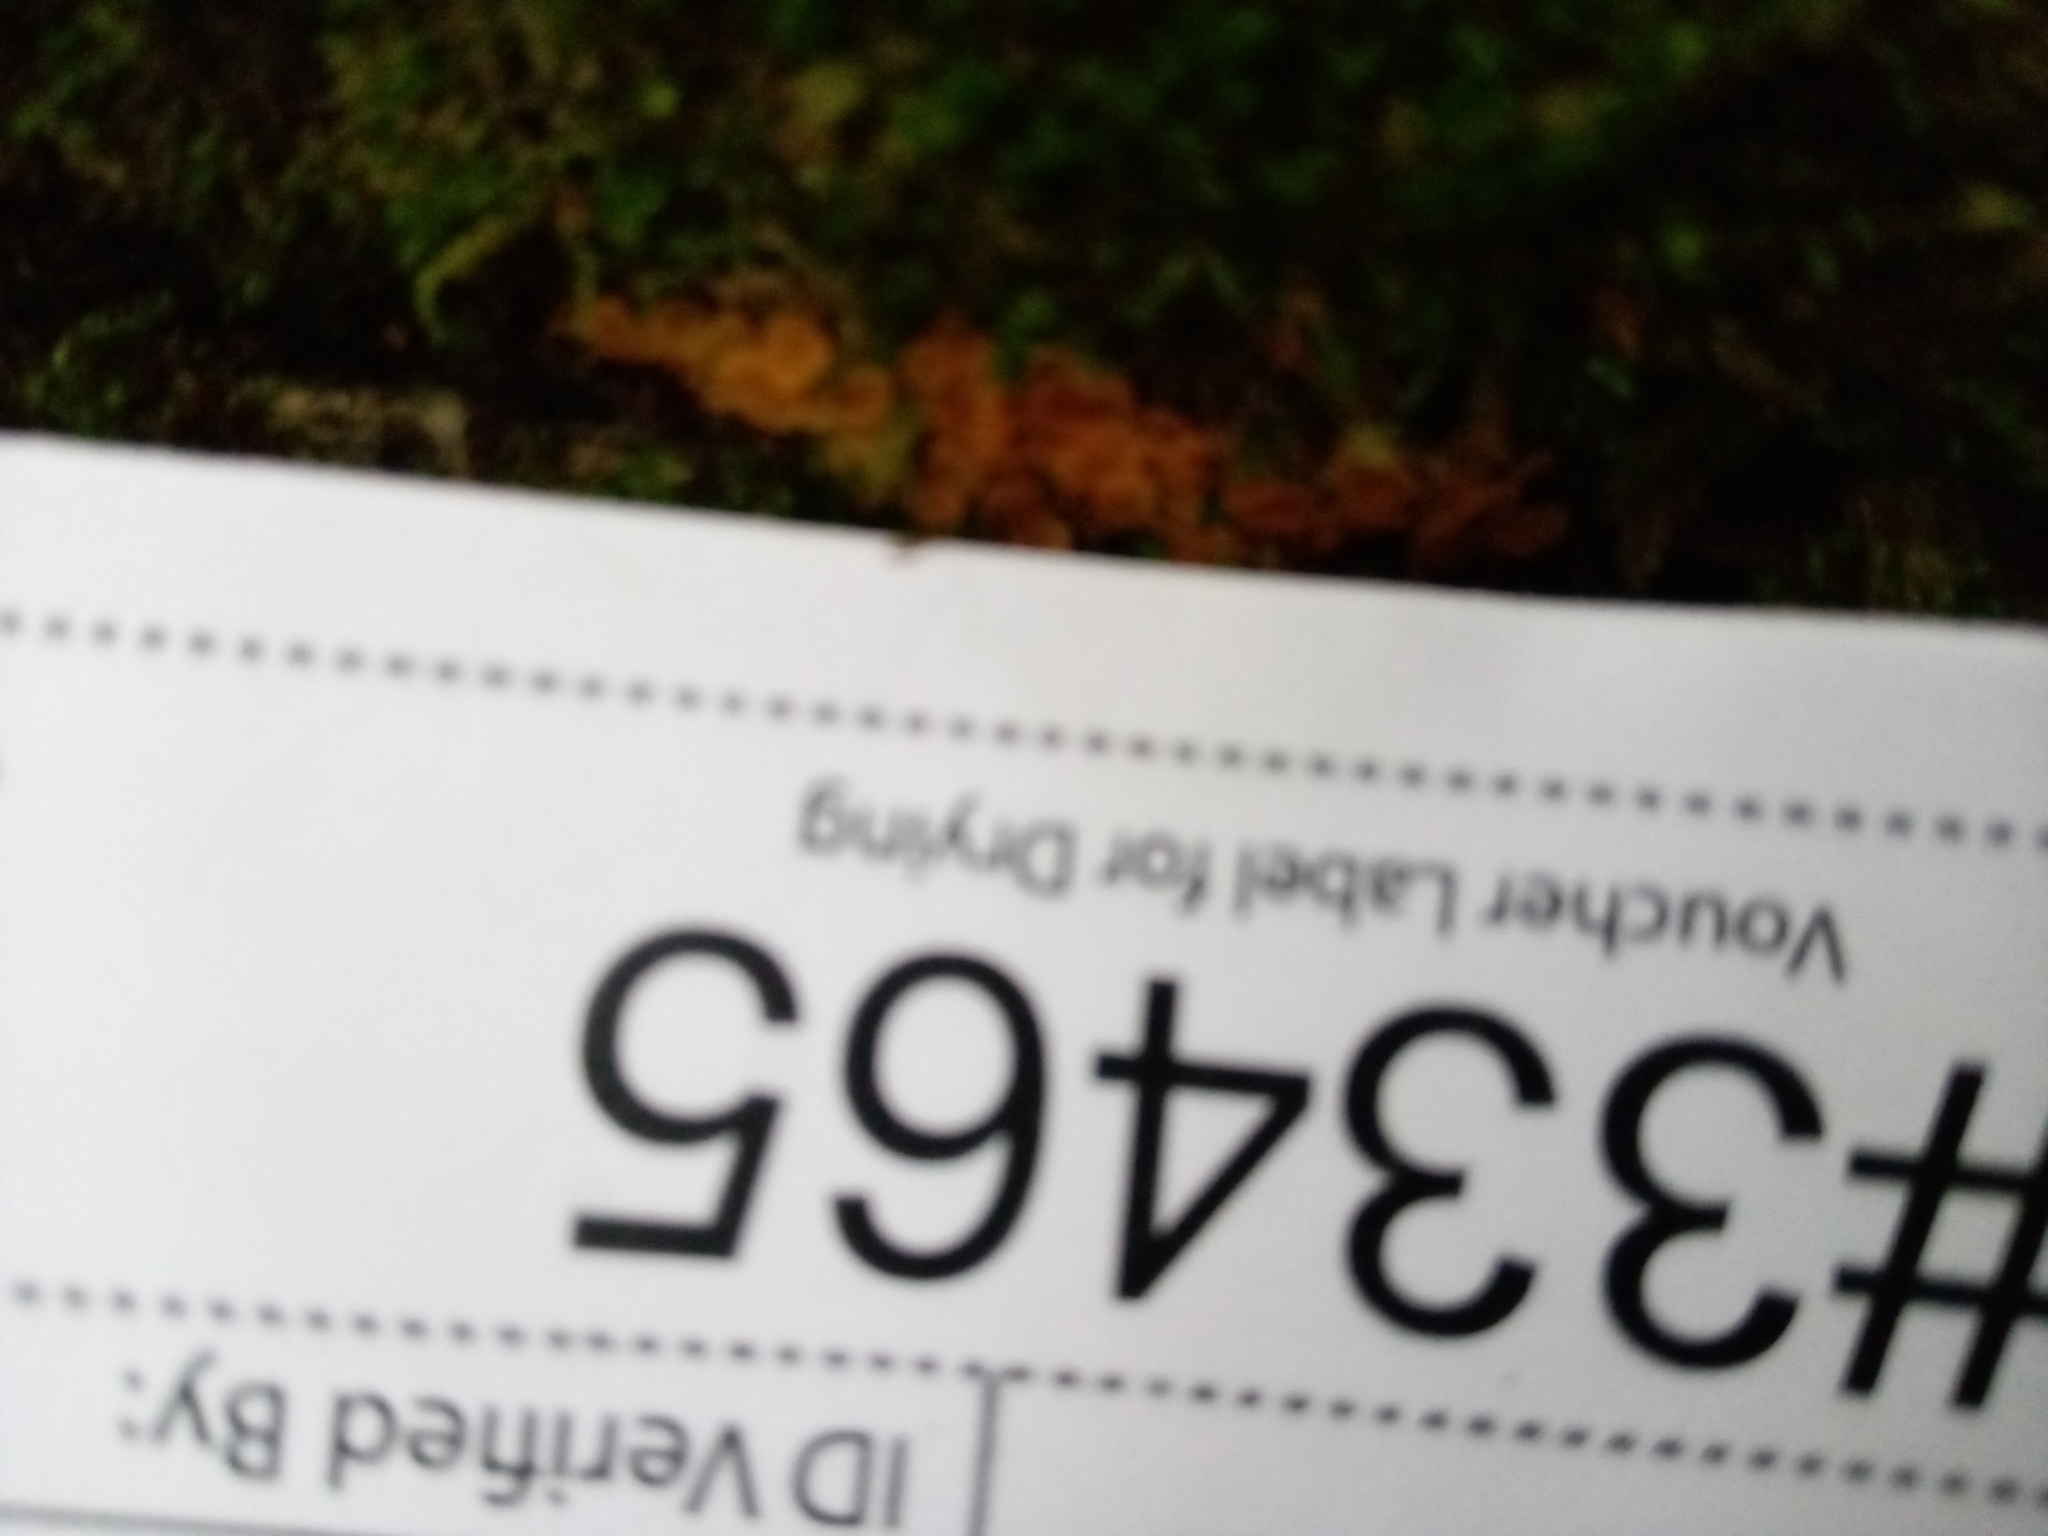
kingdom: Fungi
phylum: Ascomycota
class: Orbiliomycetes
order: Orbiliales
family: Orbiliaceae
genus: Orbilia
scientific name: Orbilia xanthostigma
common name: Common glasscup
